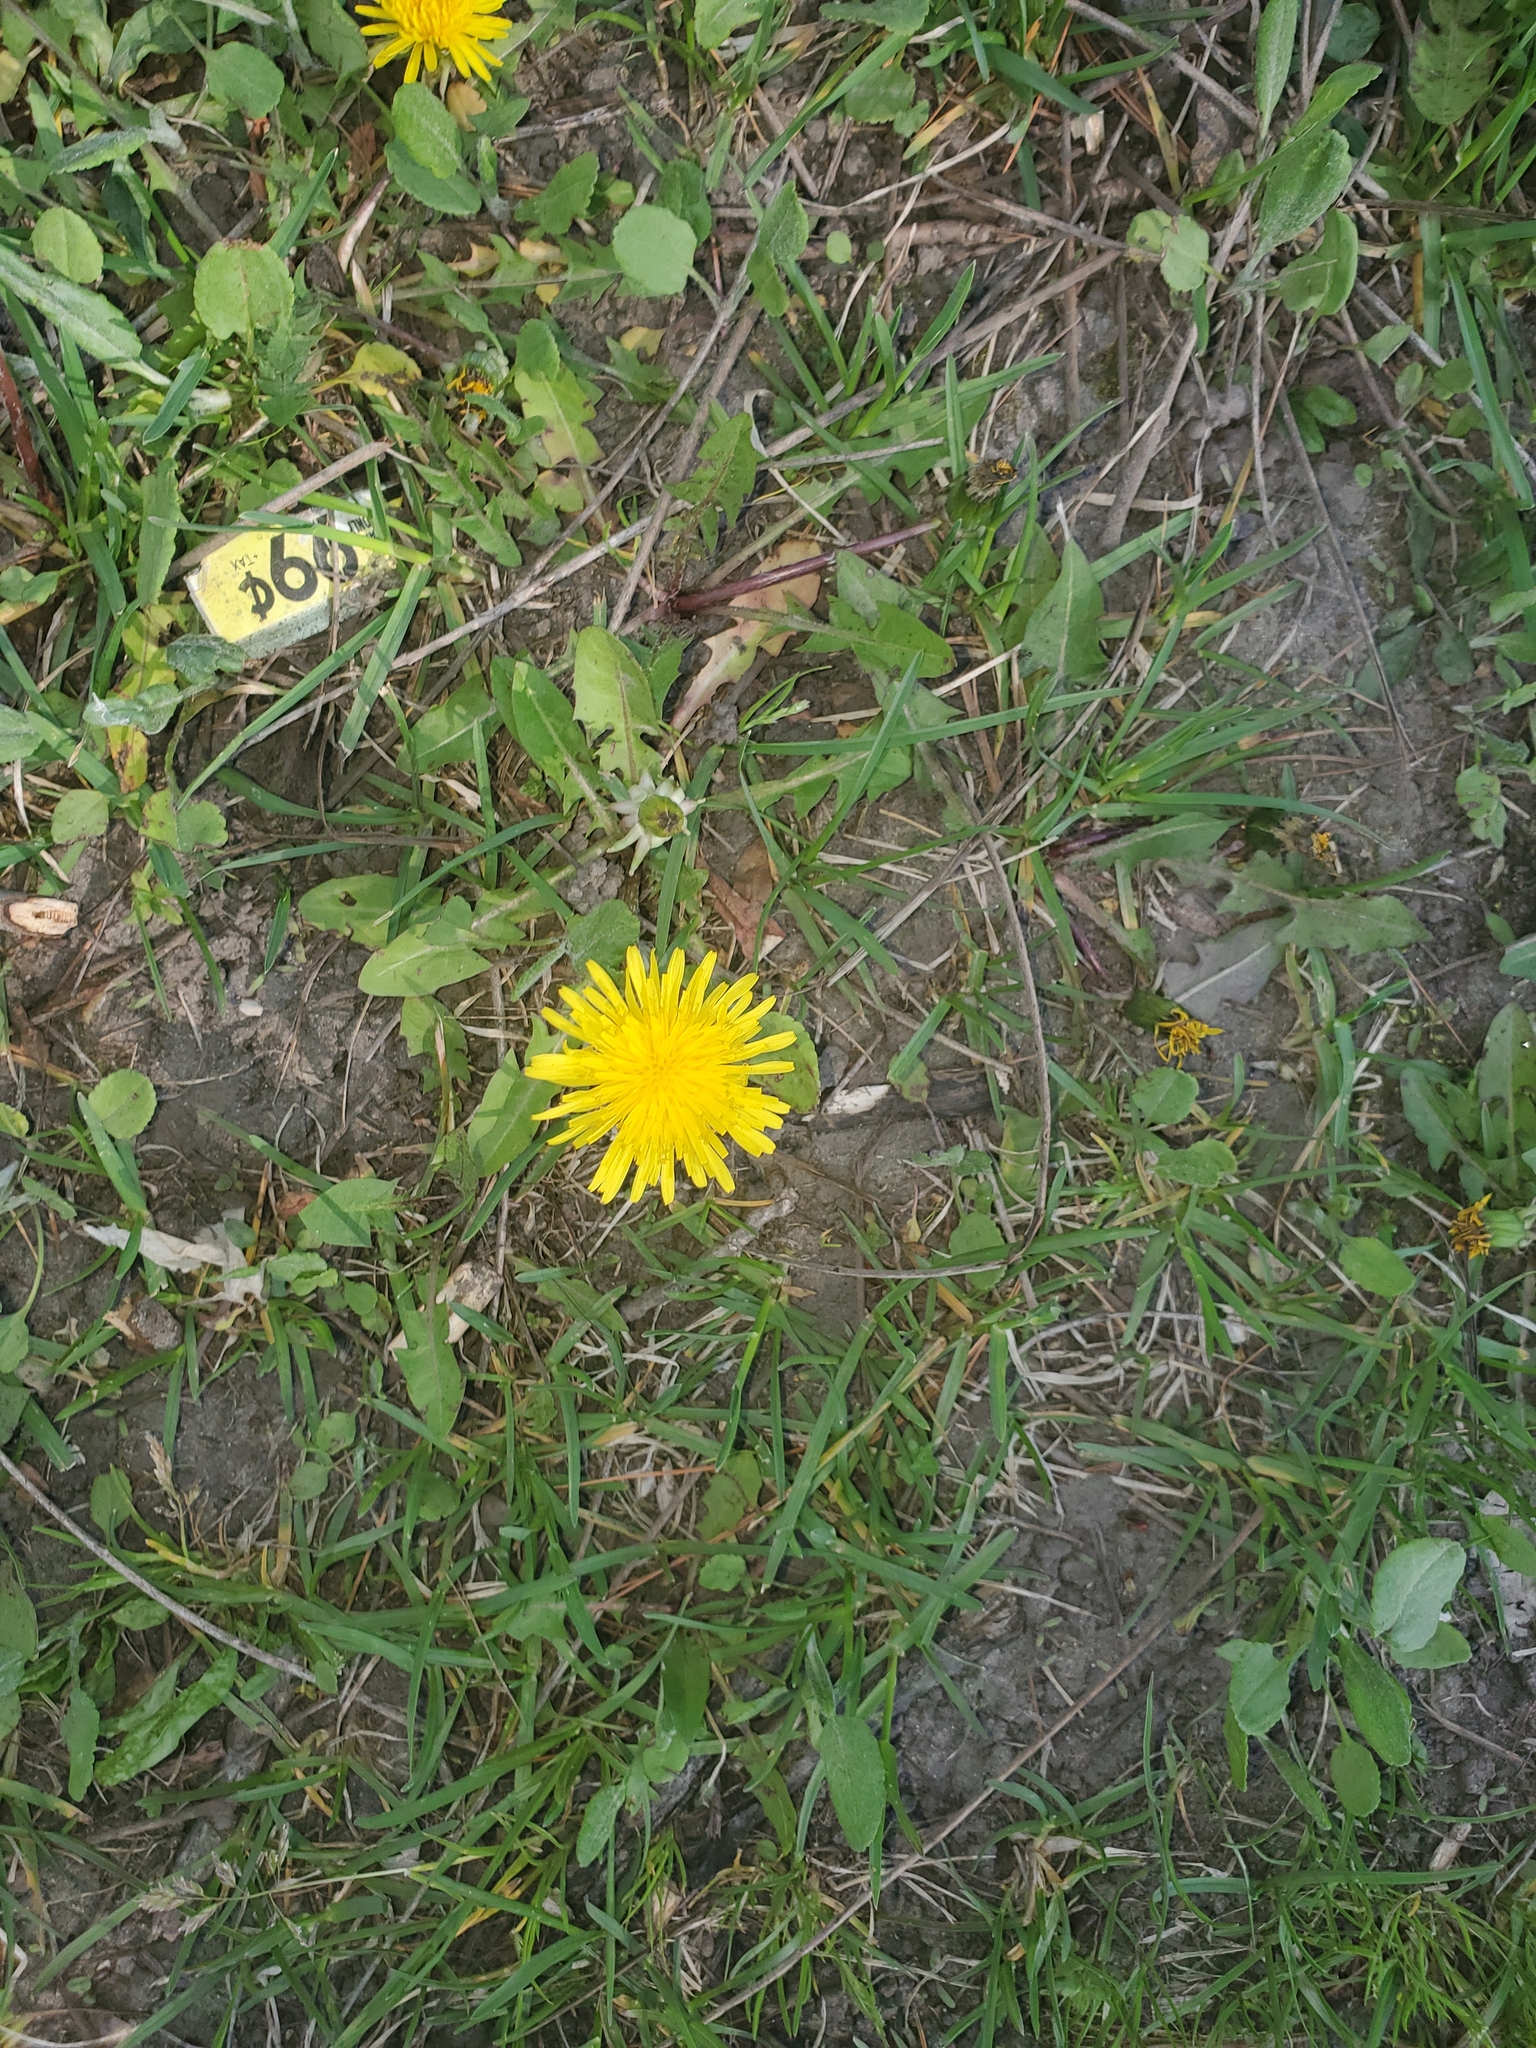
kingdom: Plantae
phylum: Tracheophyta
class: Magnoliopsida
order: Asterales
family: Asteraceae
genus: Taraxacum
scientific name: Taraxacum officinale
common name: Common dandelion
